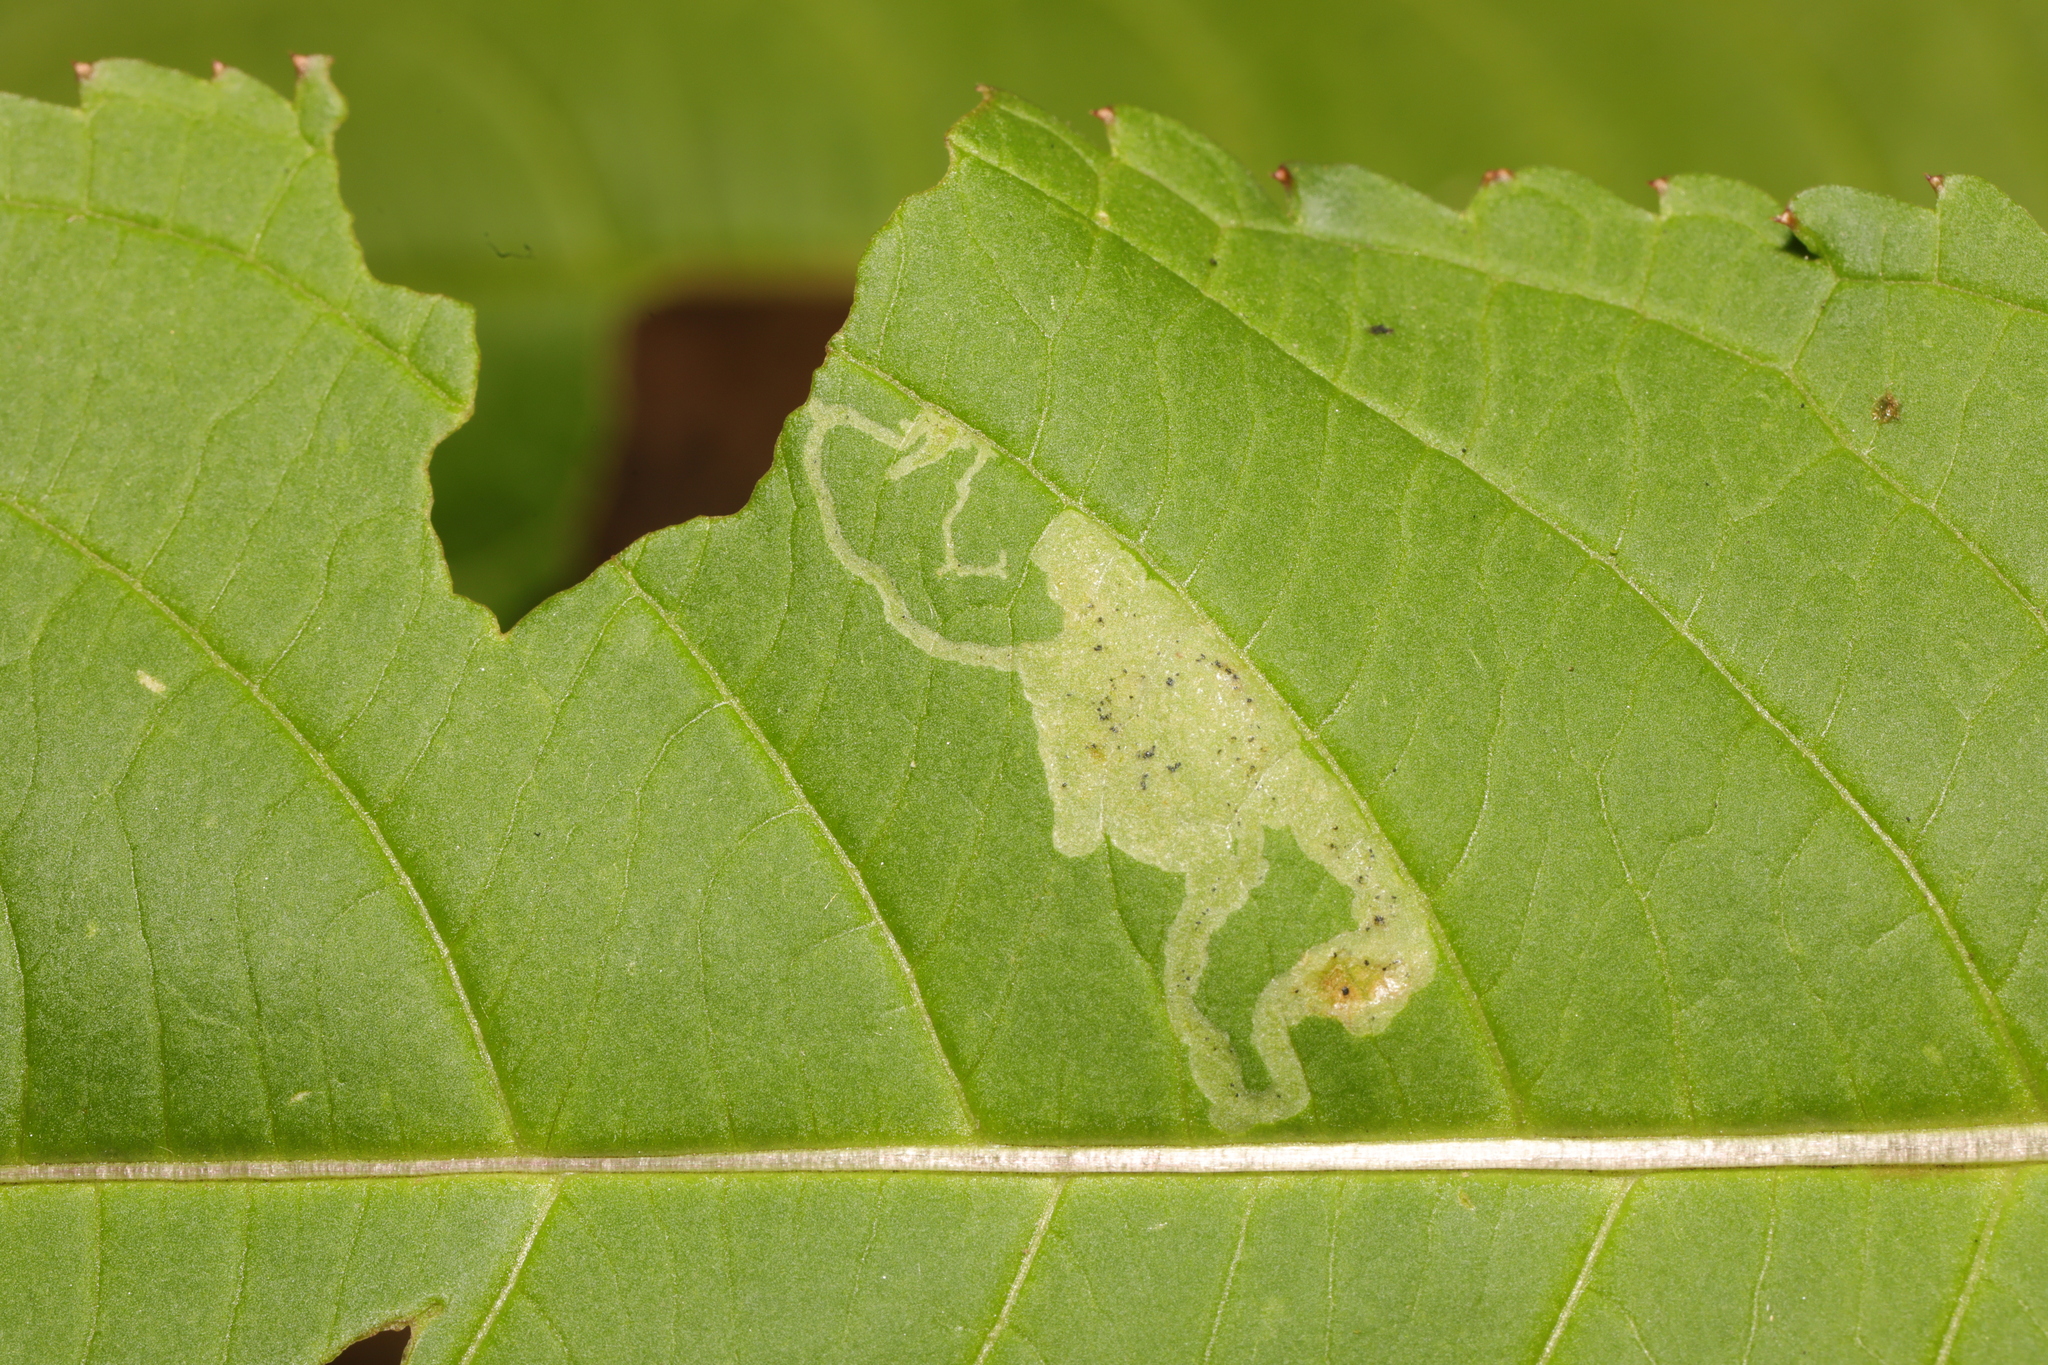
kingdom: Animalia
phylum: Arthropoda
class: Insecta
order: Diptera
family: Agromyzidae
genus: Phytoliriomyza
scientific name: Phytoliriomyza melampyga
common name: Jewelweed leaf-miner fly
